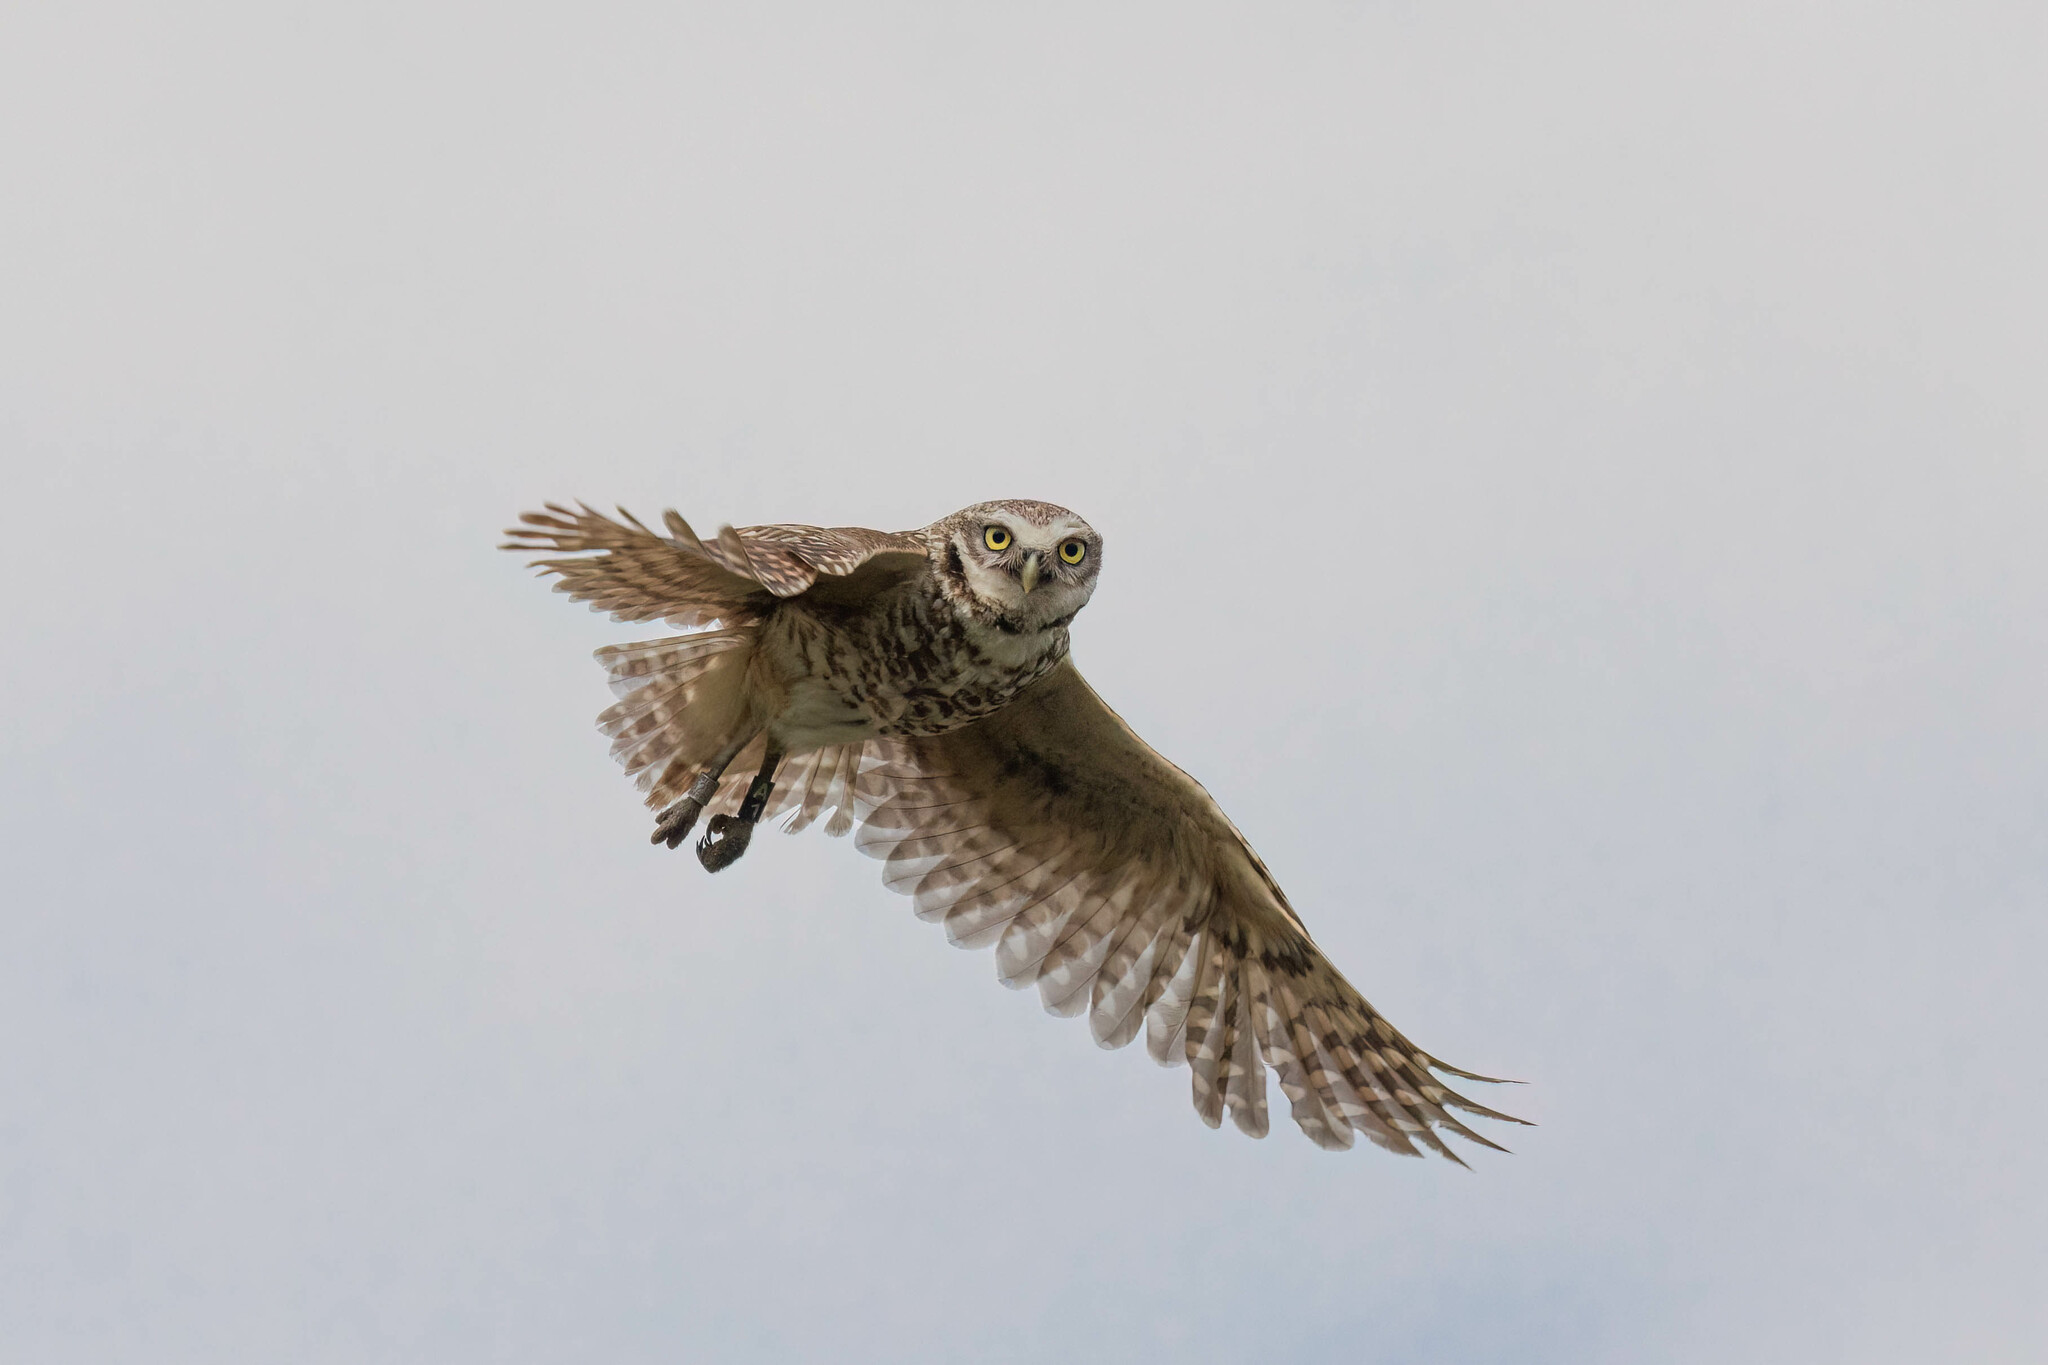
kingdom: Animalia
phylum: Chordata
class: Aves
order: Strigiformes
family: Strigidae
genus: Athene
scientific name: Athene cunicularia
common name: Burrowing owl
